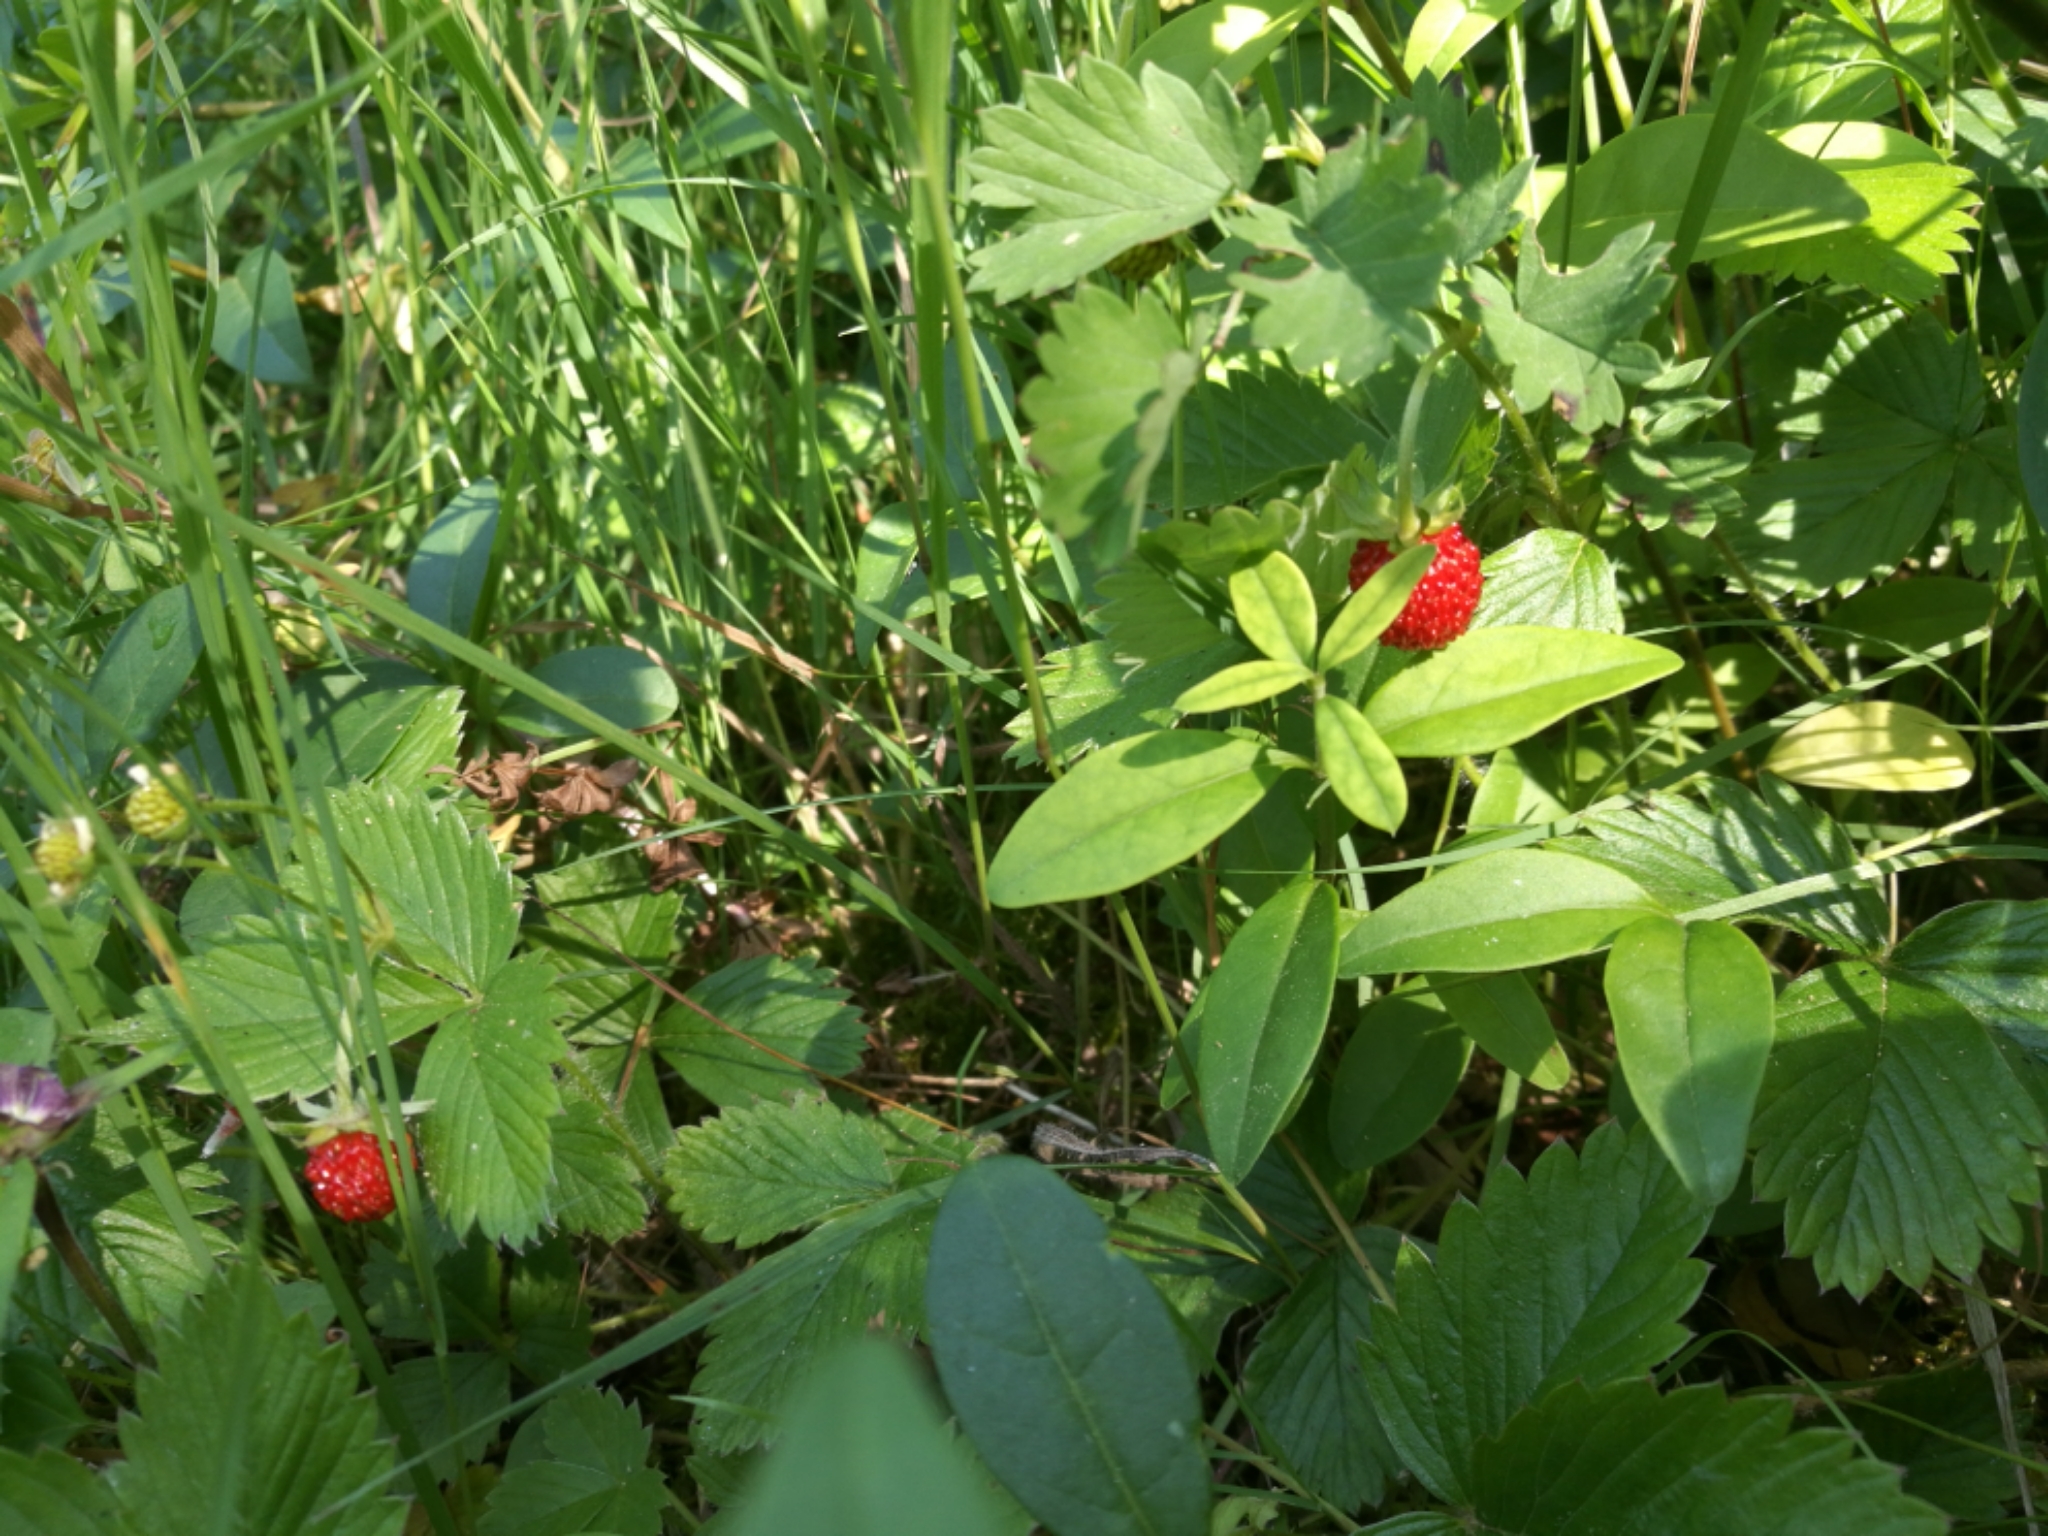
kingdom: Plantae
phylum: Tracheophyta
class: Magnoliopsida
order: Rosales
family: Rosaceae
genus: Fragaria
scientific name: Fragaria vesca
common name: Wild strawberry
